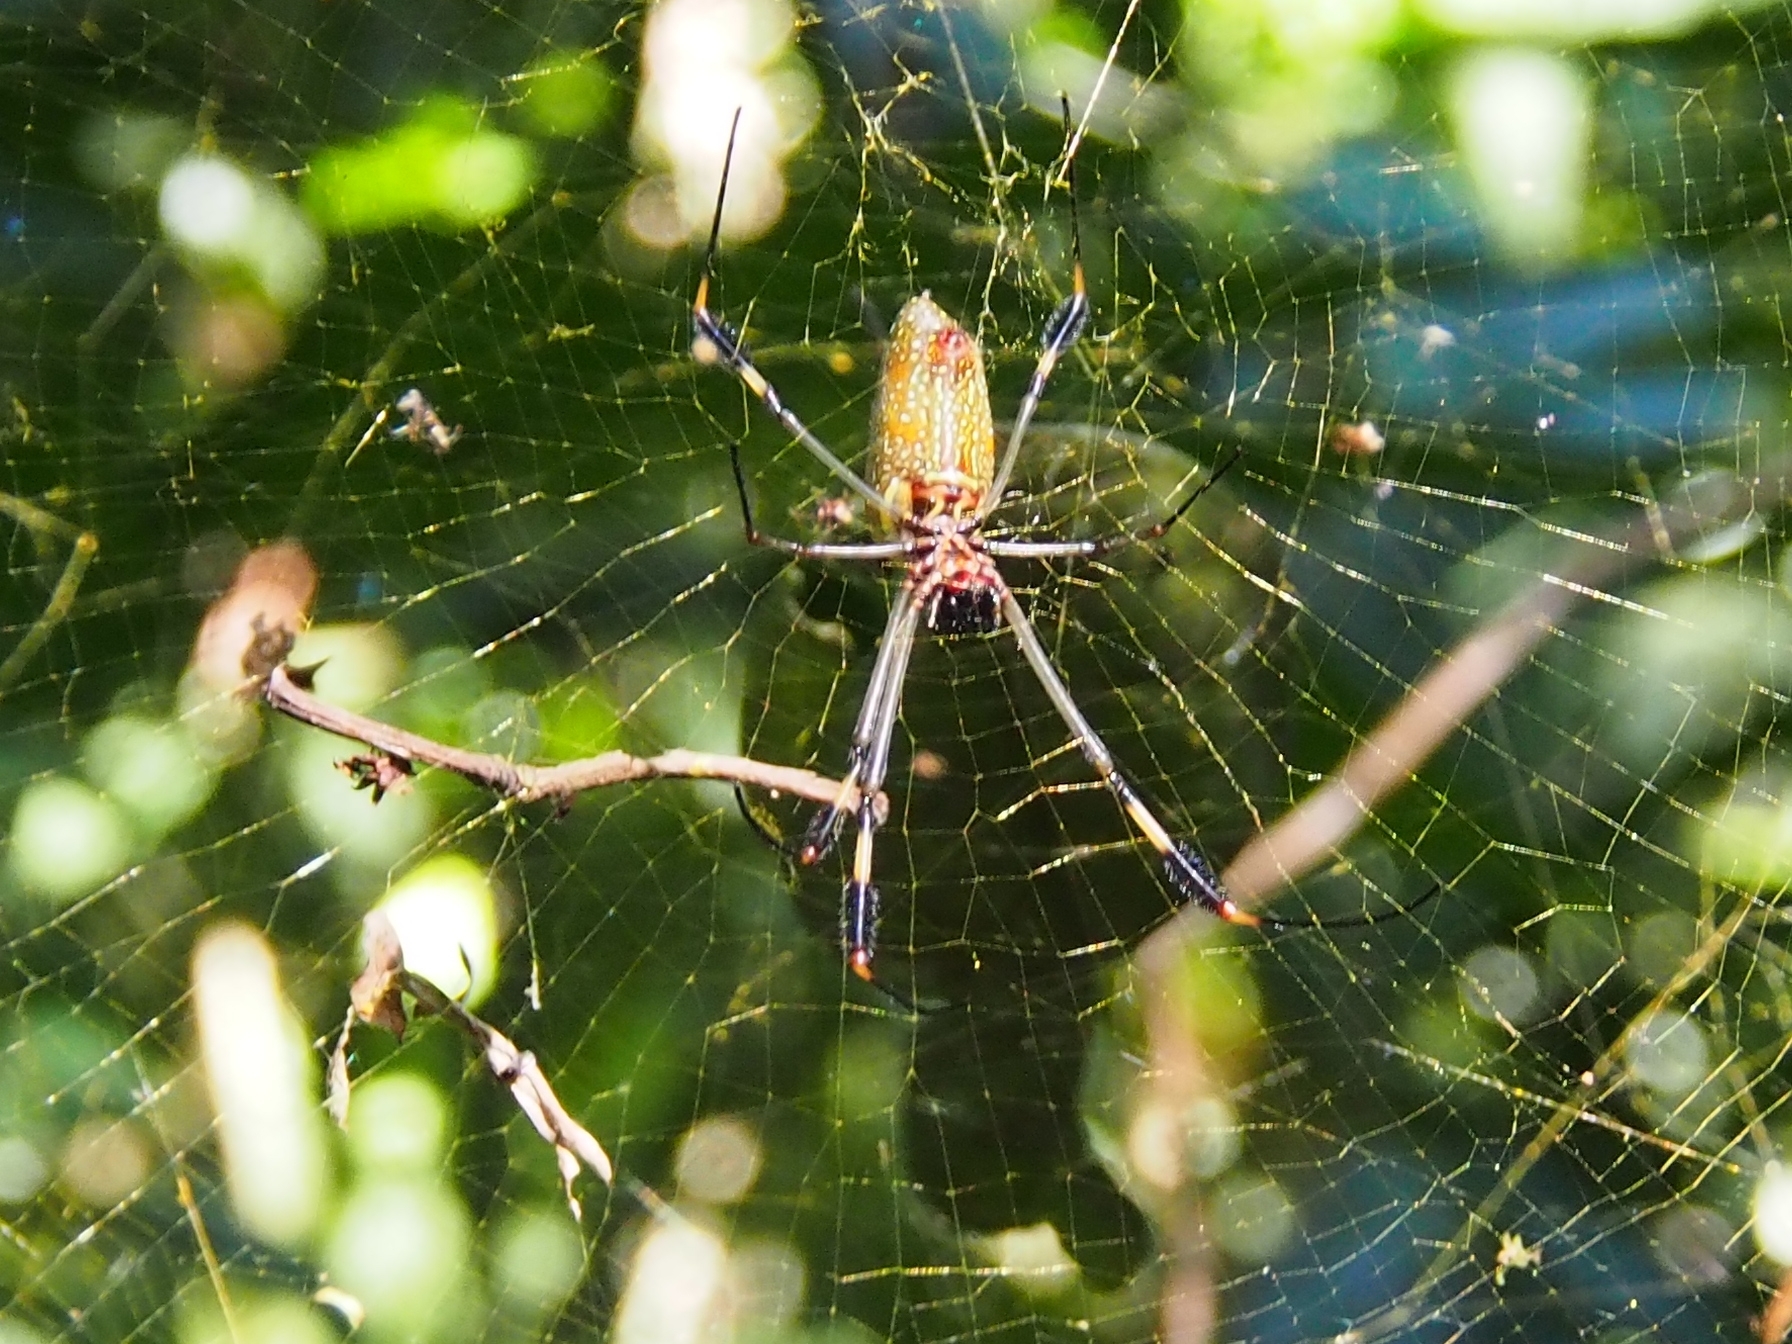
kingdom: Animalia
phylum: Arthropoda
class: Arachnida
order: Araneae
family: Araneidae
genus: Trichonephila
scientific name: Trichonephila clavipes
